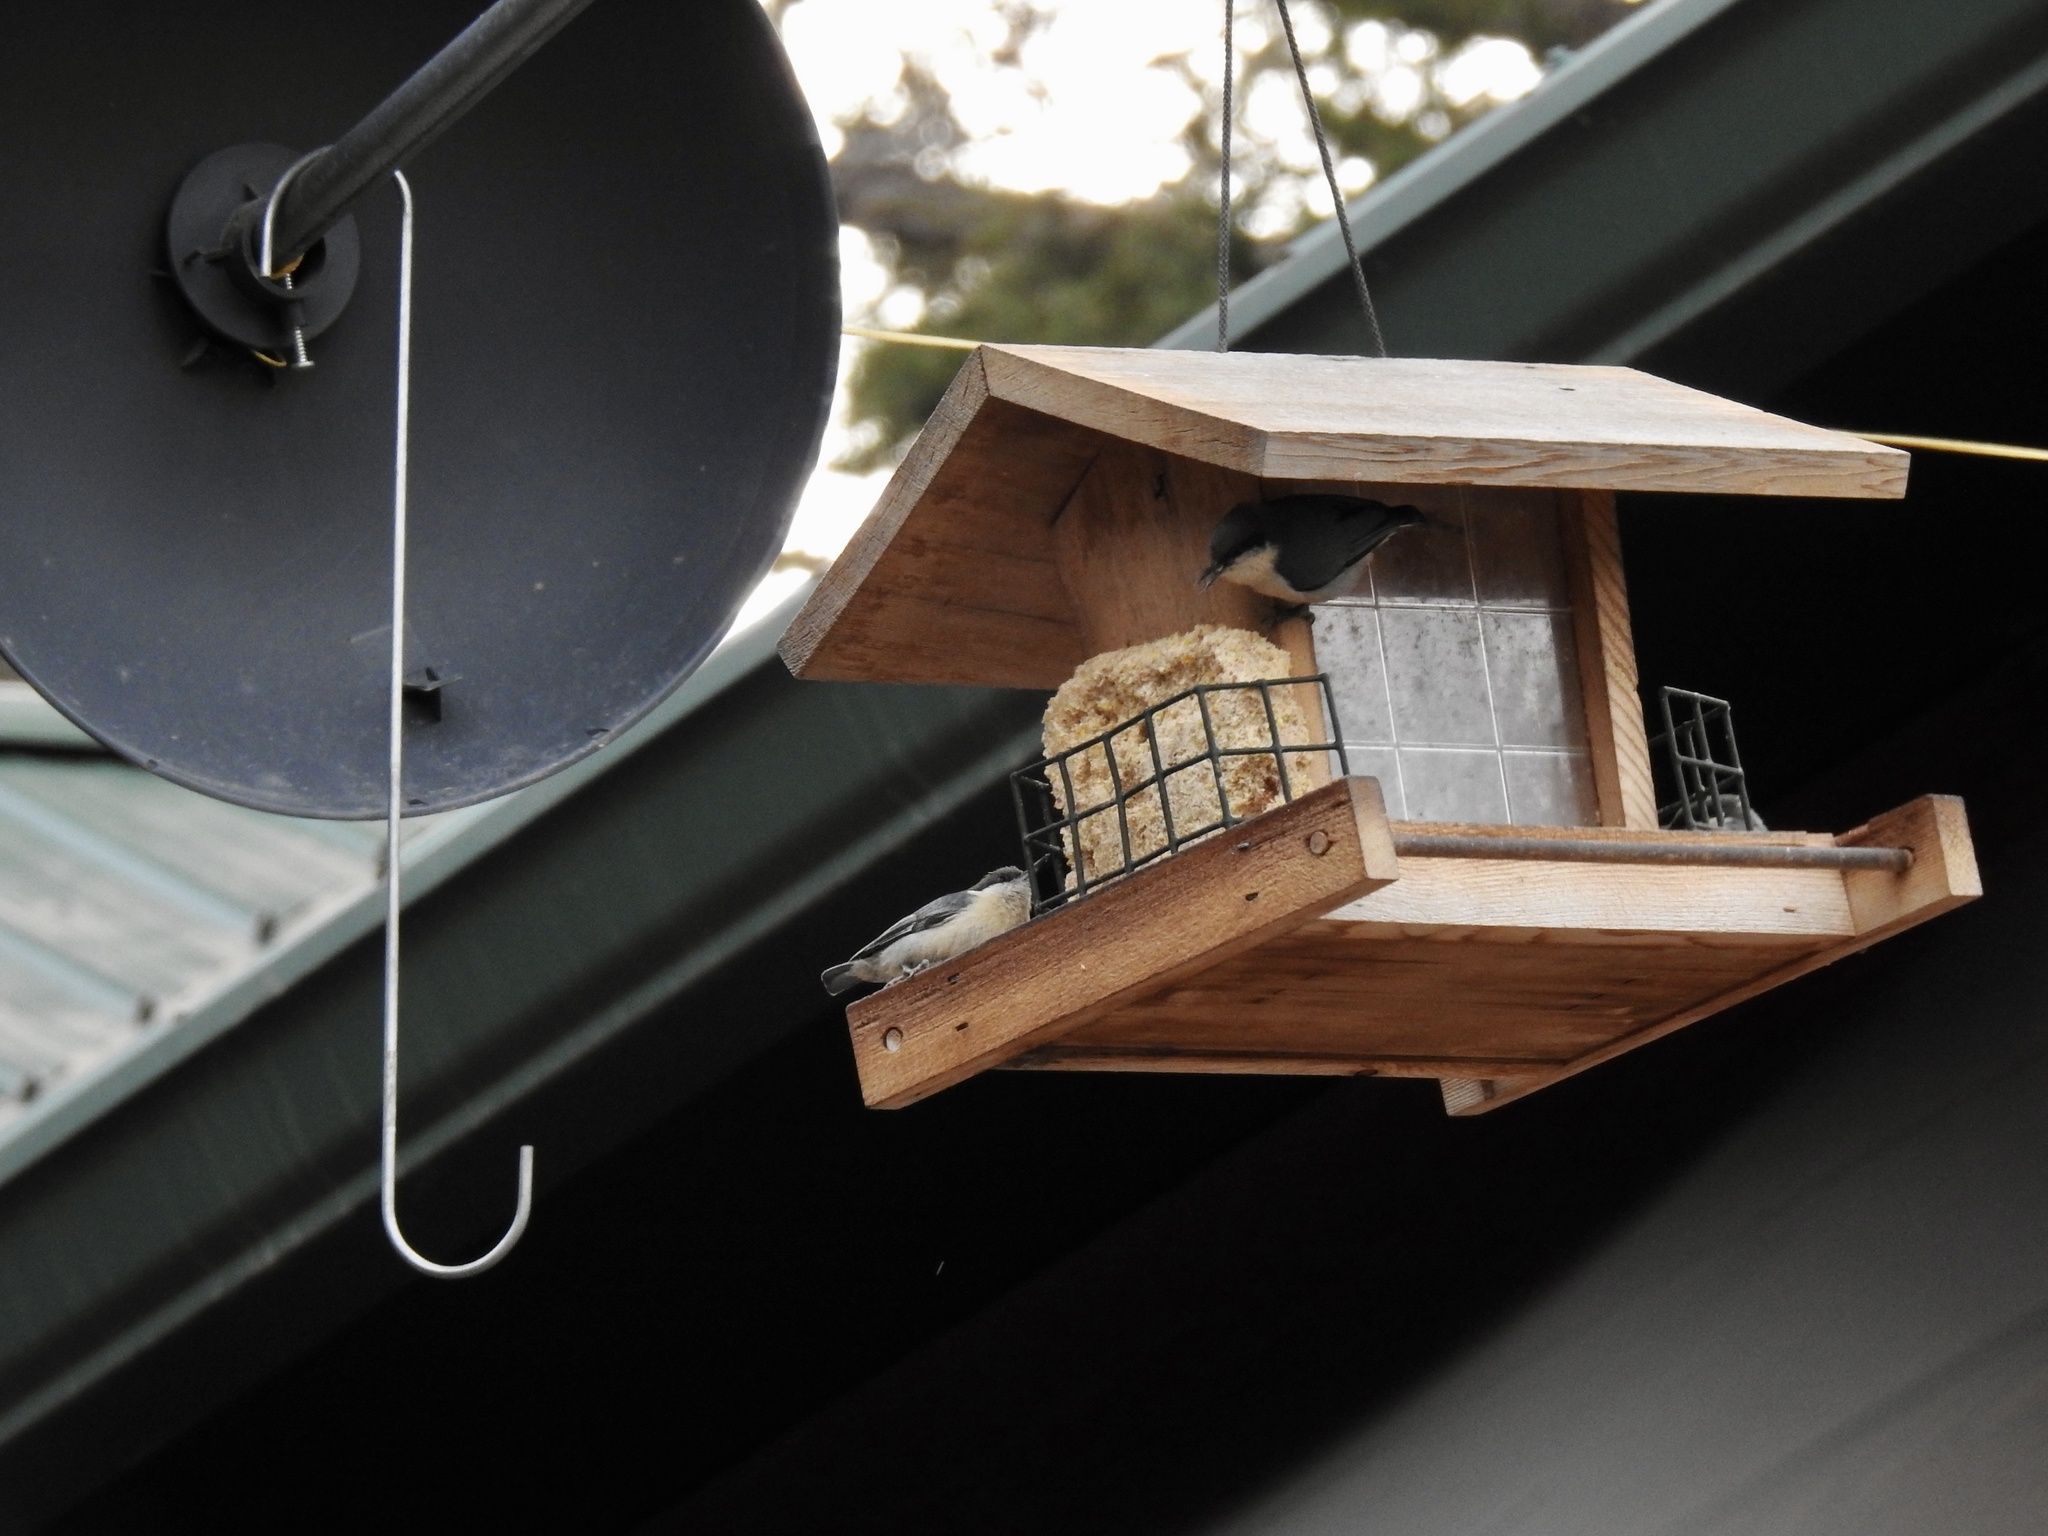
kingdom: Animalia
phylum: Chordata
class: Aves
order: Passeriformes
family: Sittidae
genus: Sitta
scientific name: Sitta pygmaea
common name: Pygmy nuthatch
